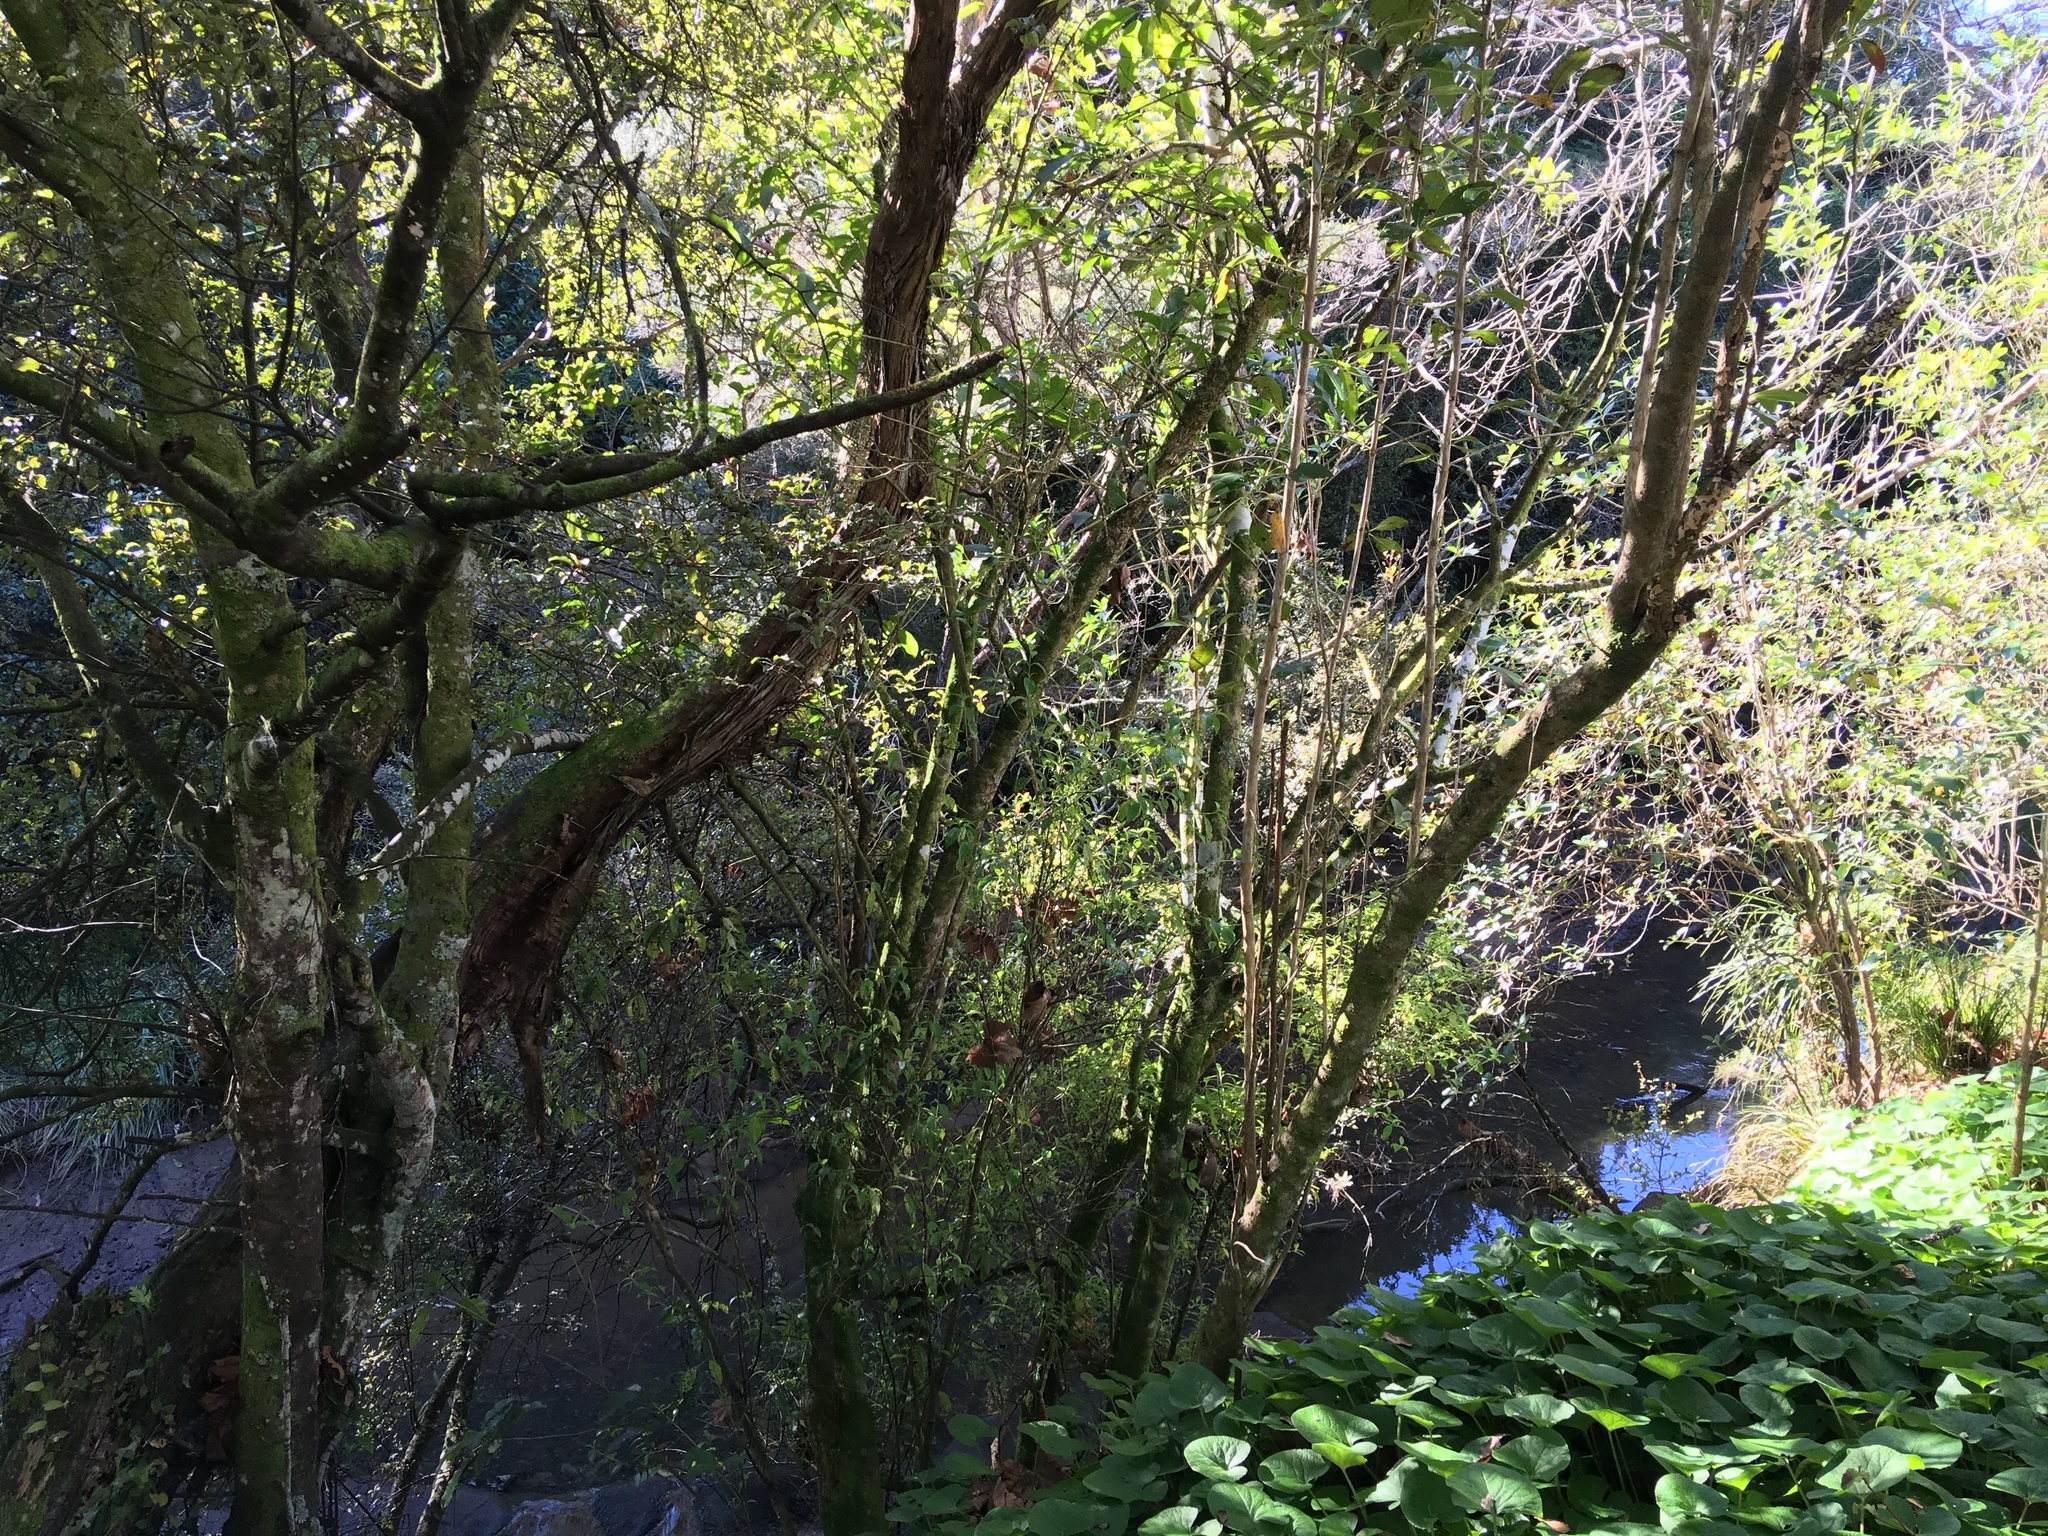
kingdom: Plantae
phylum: Tracheophyta
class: Magnoliopsida
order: Asterales
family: Asteraceae
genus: Petasites
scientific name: Petasites pyrenaicus
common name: Winter heliotrope
